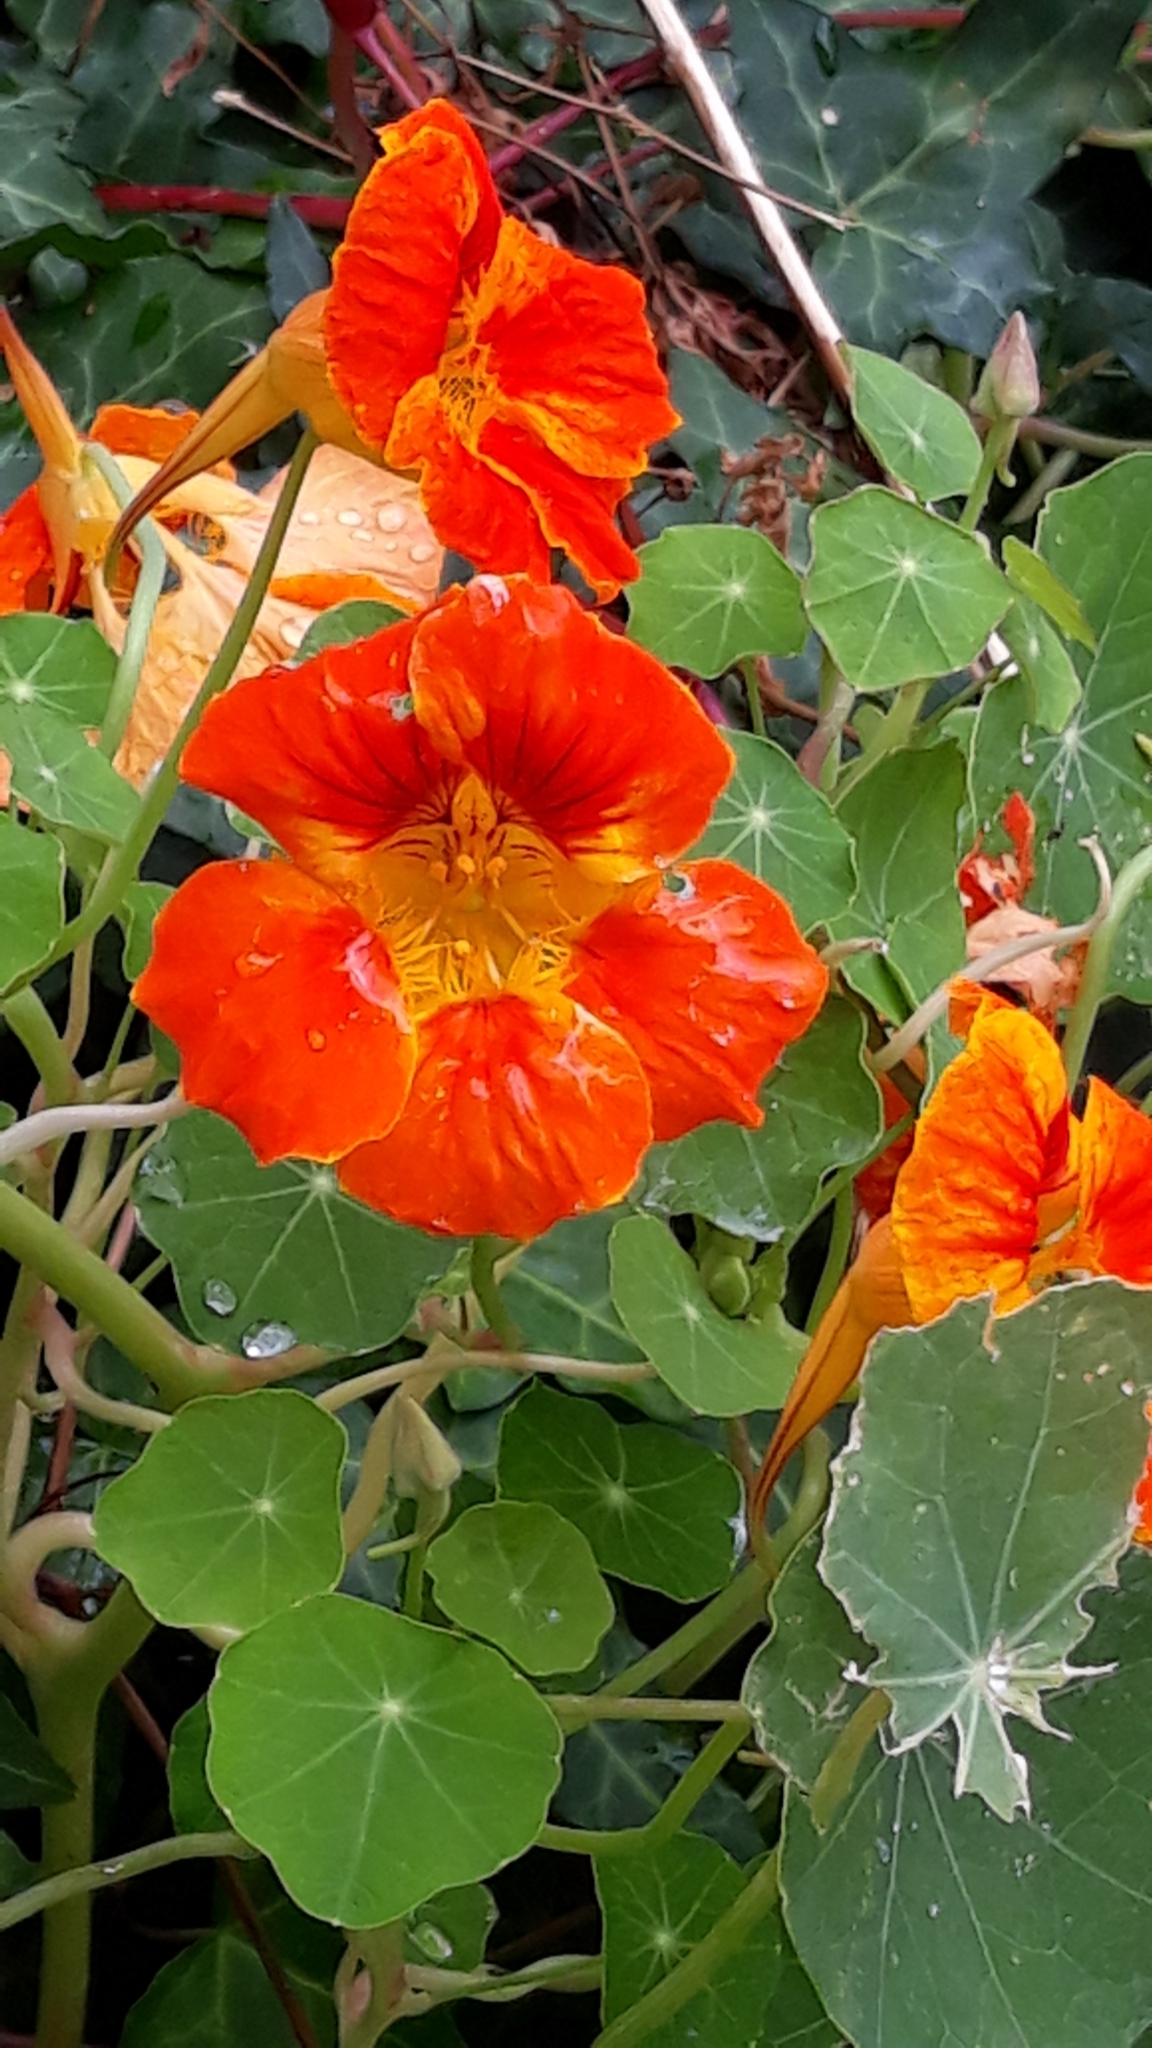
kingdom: Plantae
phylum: Tracheophyta
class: Magnoliopsida
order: Brassicales
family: Tropaeolaceae
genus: Tropaeolum
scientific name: Tropaeolum majus
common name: Nasturtium
